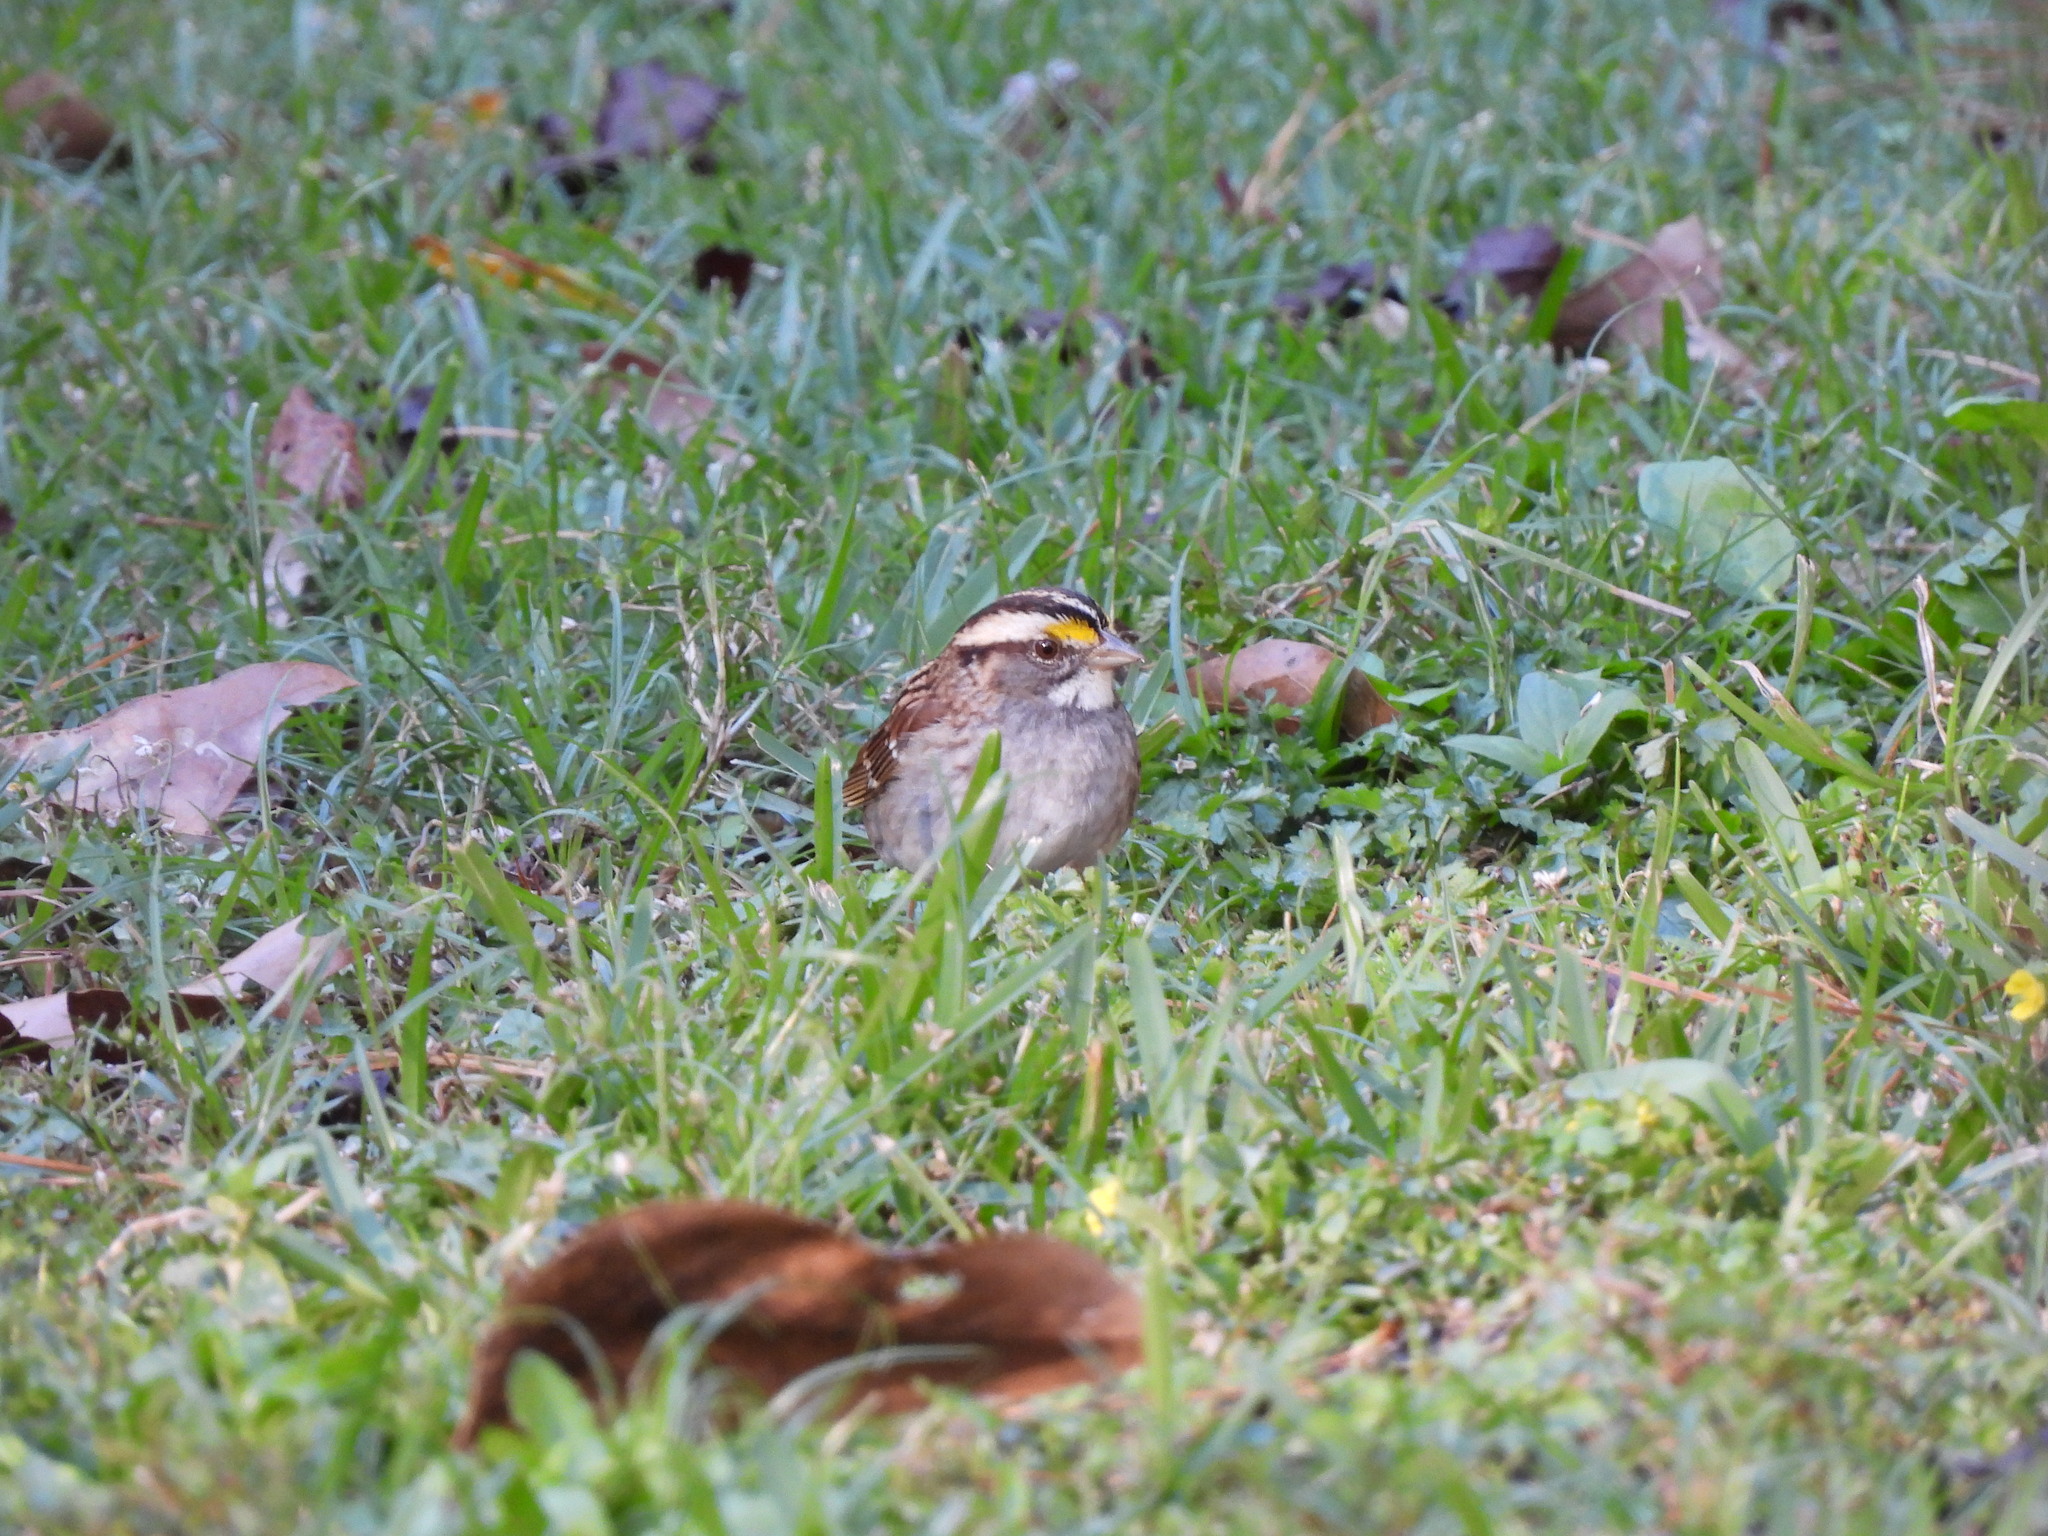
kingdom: Animalia
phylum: Chordata
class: Aves
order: Passeriformes
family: Passerellidae
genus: Zonotrichia
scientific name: Zonotrichia albicollis
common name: White-throated sparrow
